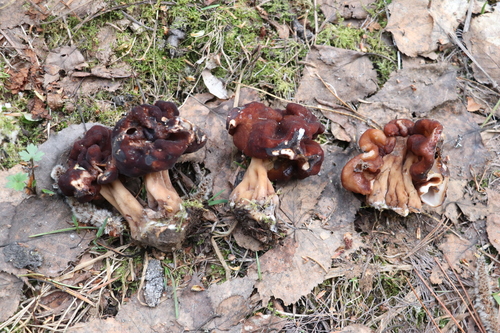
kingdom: Fungi
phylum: Ascomycota
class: Pezizomycetes
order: Pezizales
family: Discinaceae
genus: Gyromitra
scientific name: Gyromitra esculenta
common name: False morel
